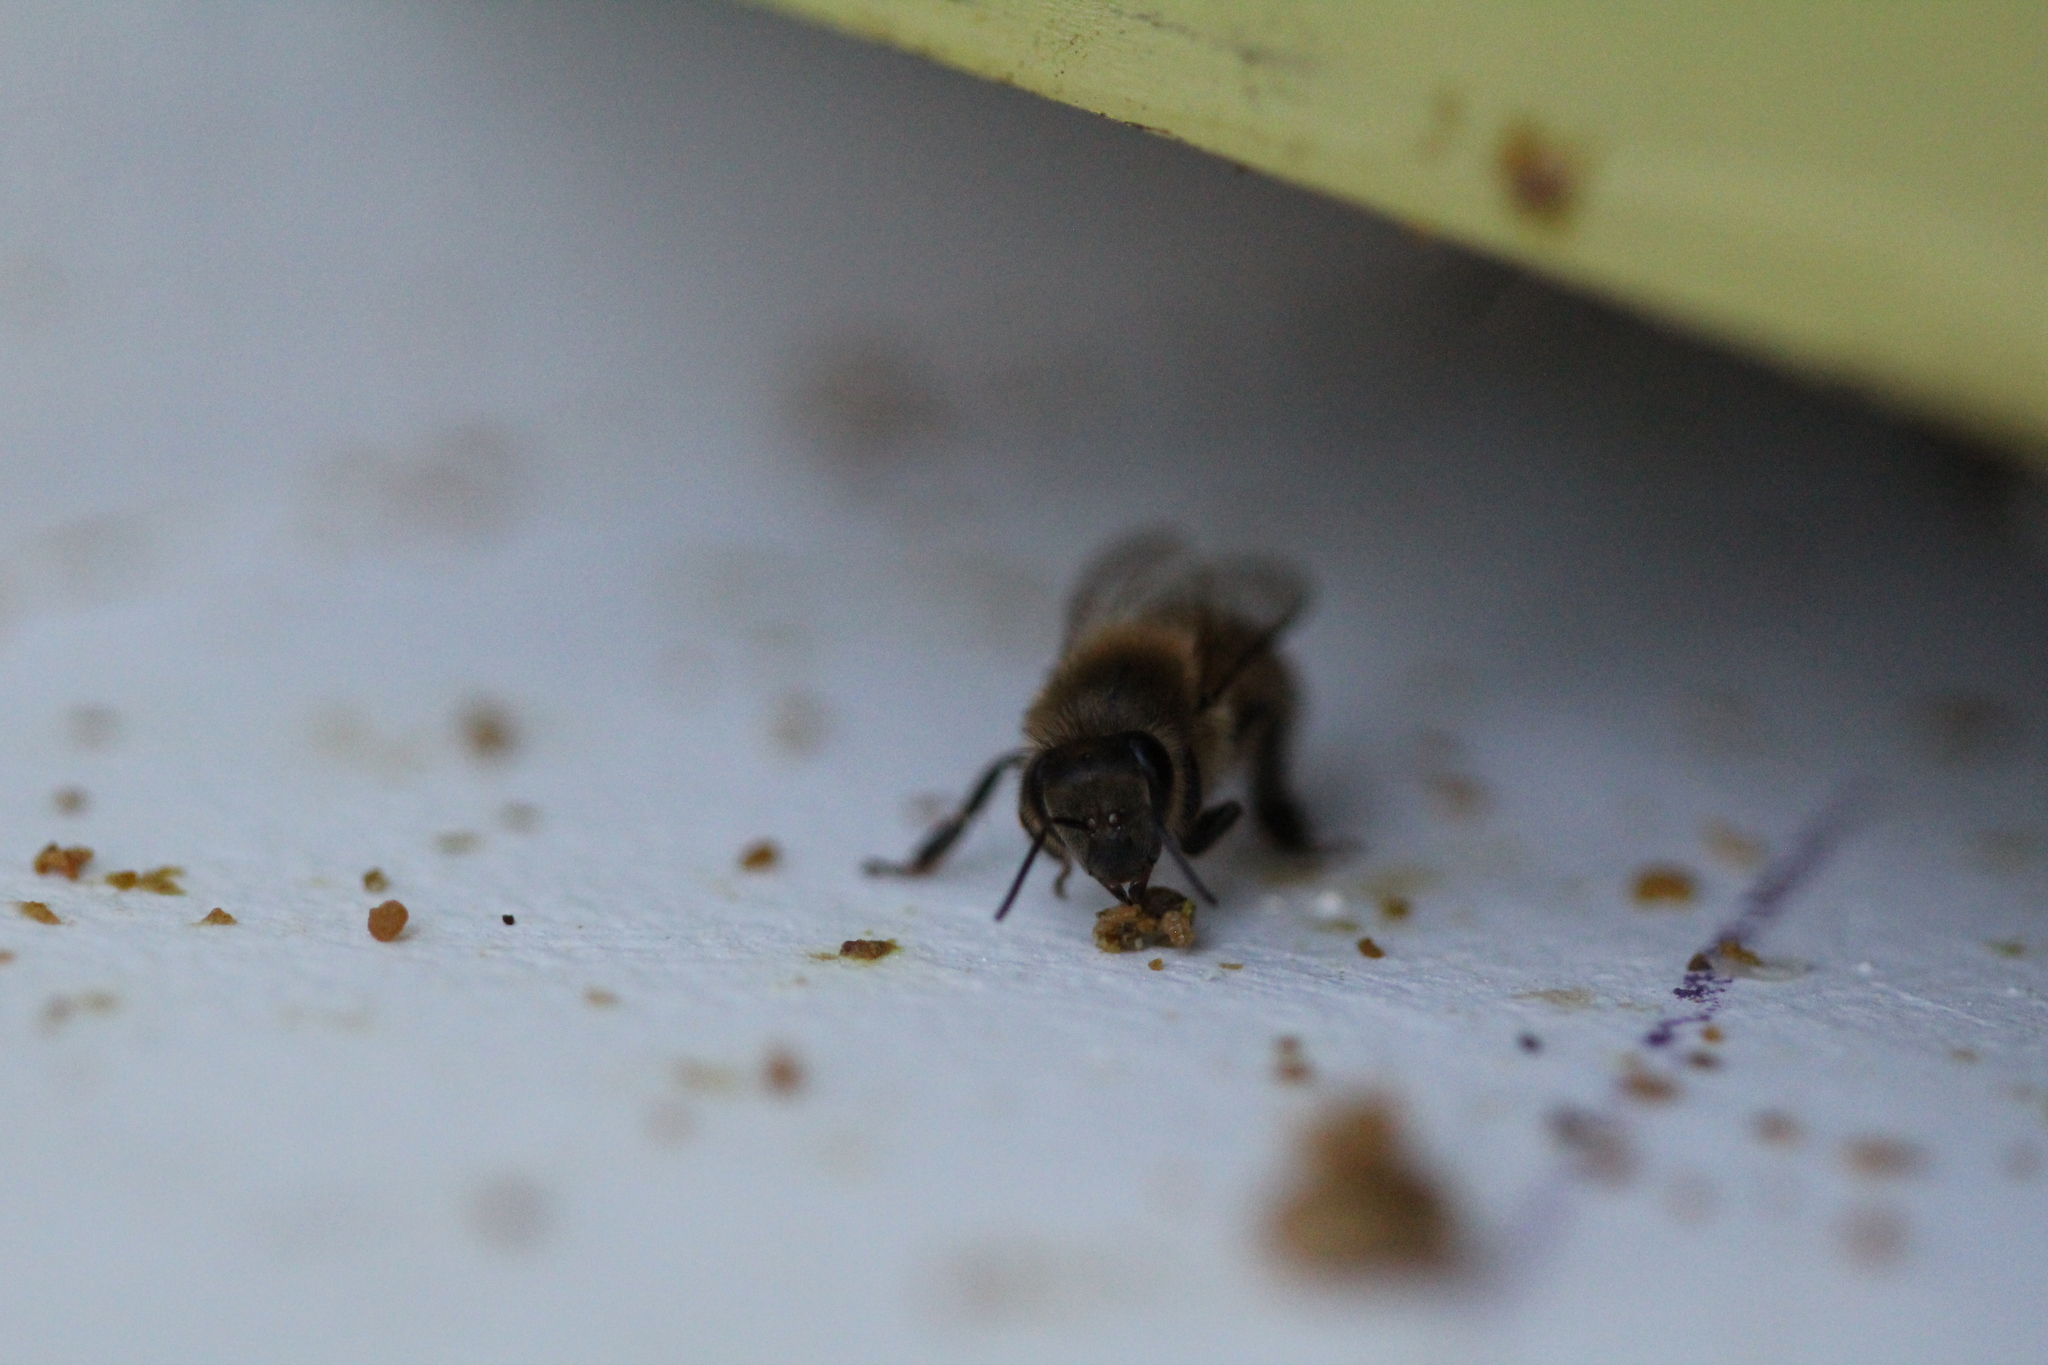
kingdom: Animalia
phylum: Arthropoda
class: Insecta
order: Hymenoptera
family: Apidae
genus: Apis
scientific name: Apis mellifera
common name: Honey bee
